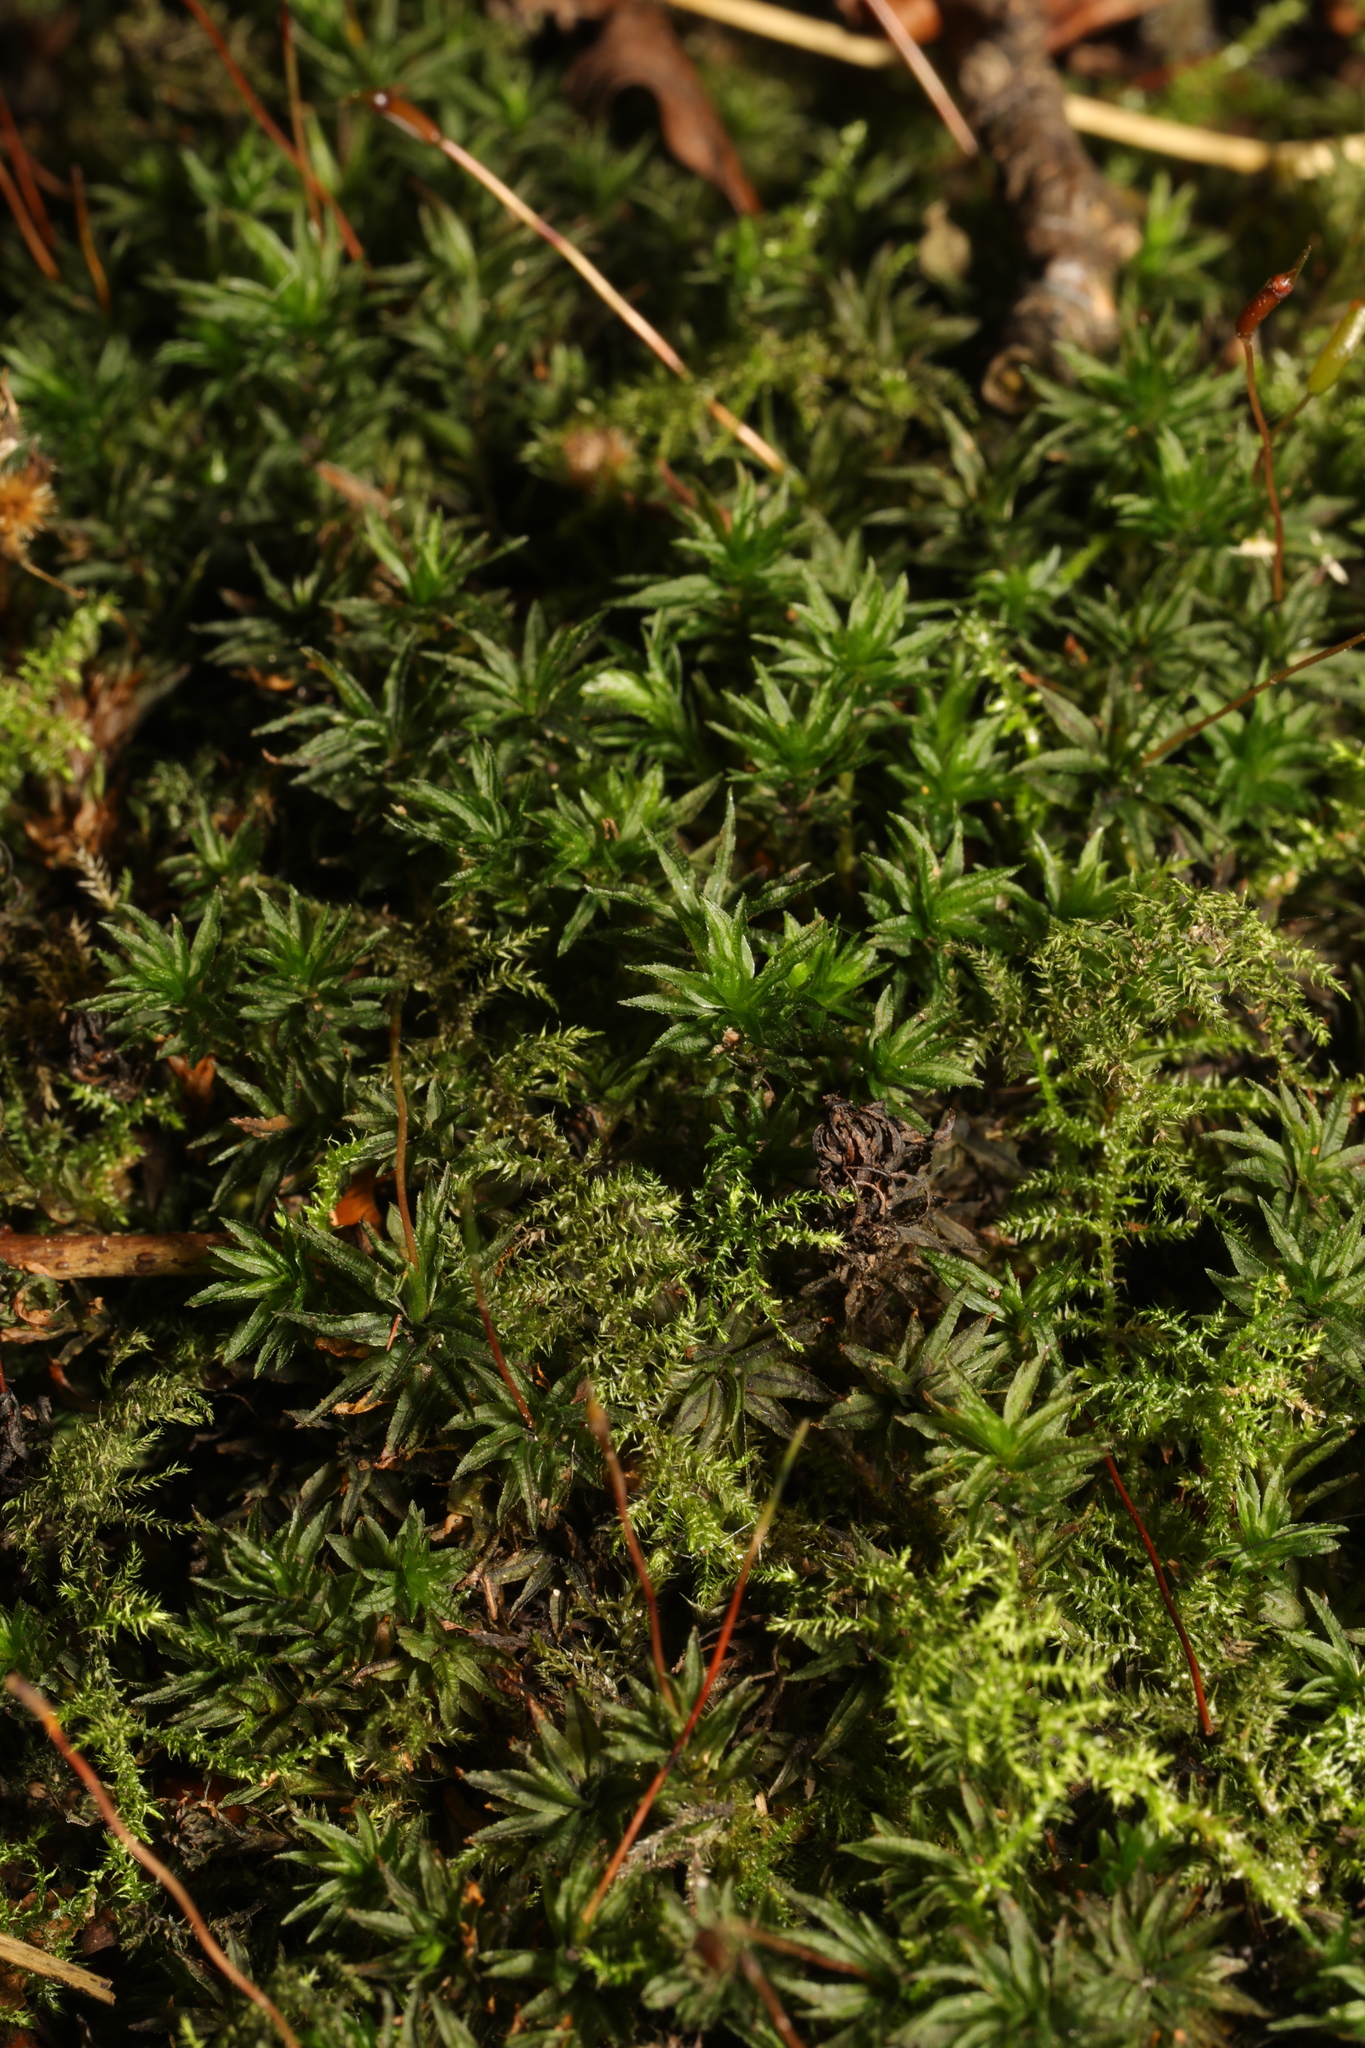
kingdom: Plantae
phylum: Bryophyta
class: Polytrichopsida
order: Polytrichales
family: Polytrichaceae
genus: Atrichum
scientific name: Atrichum undulatum
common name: Common smoothcap
